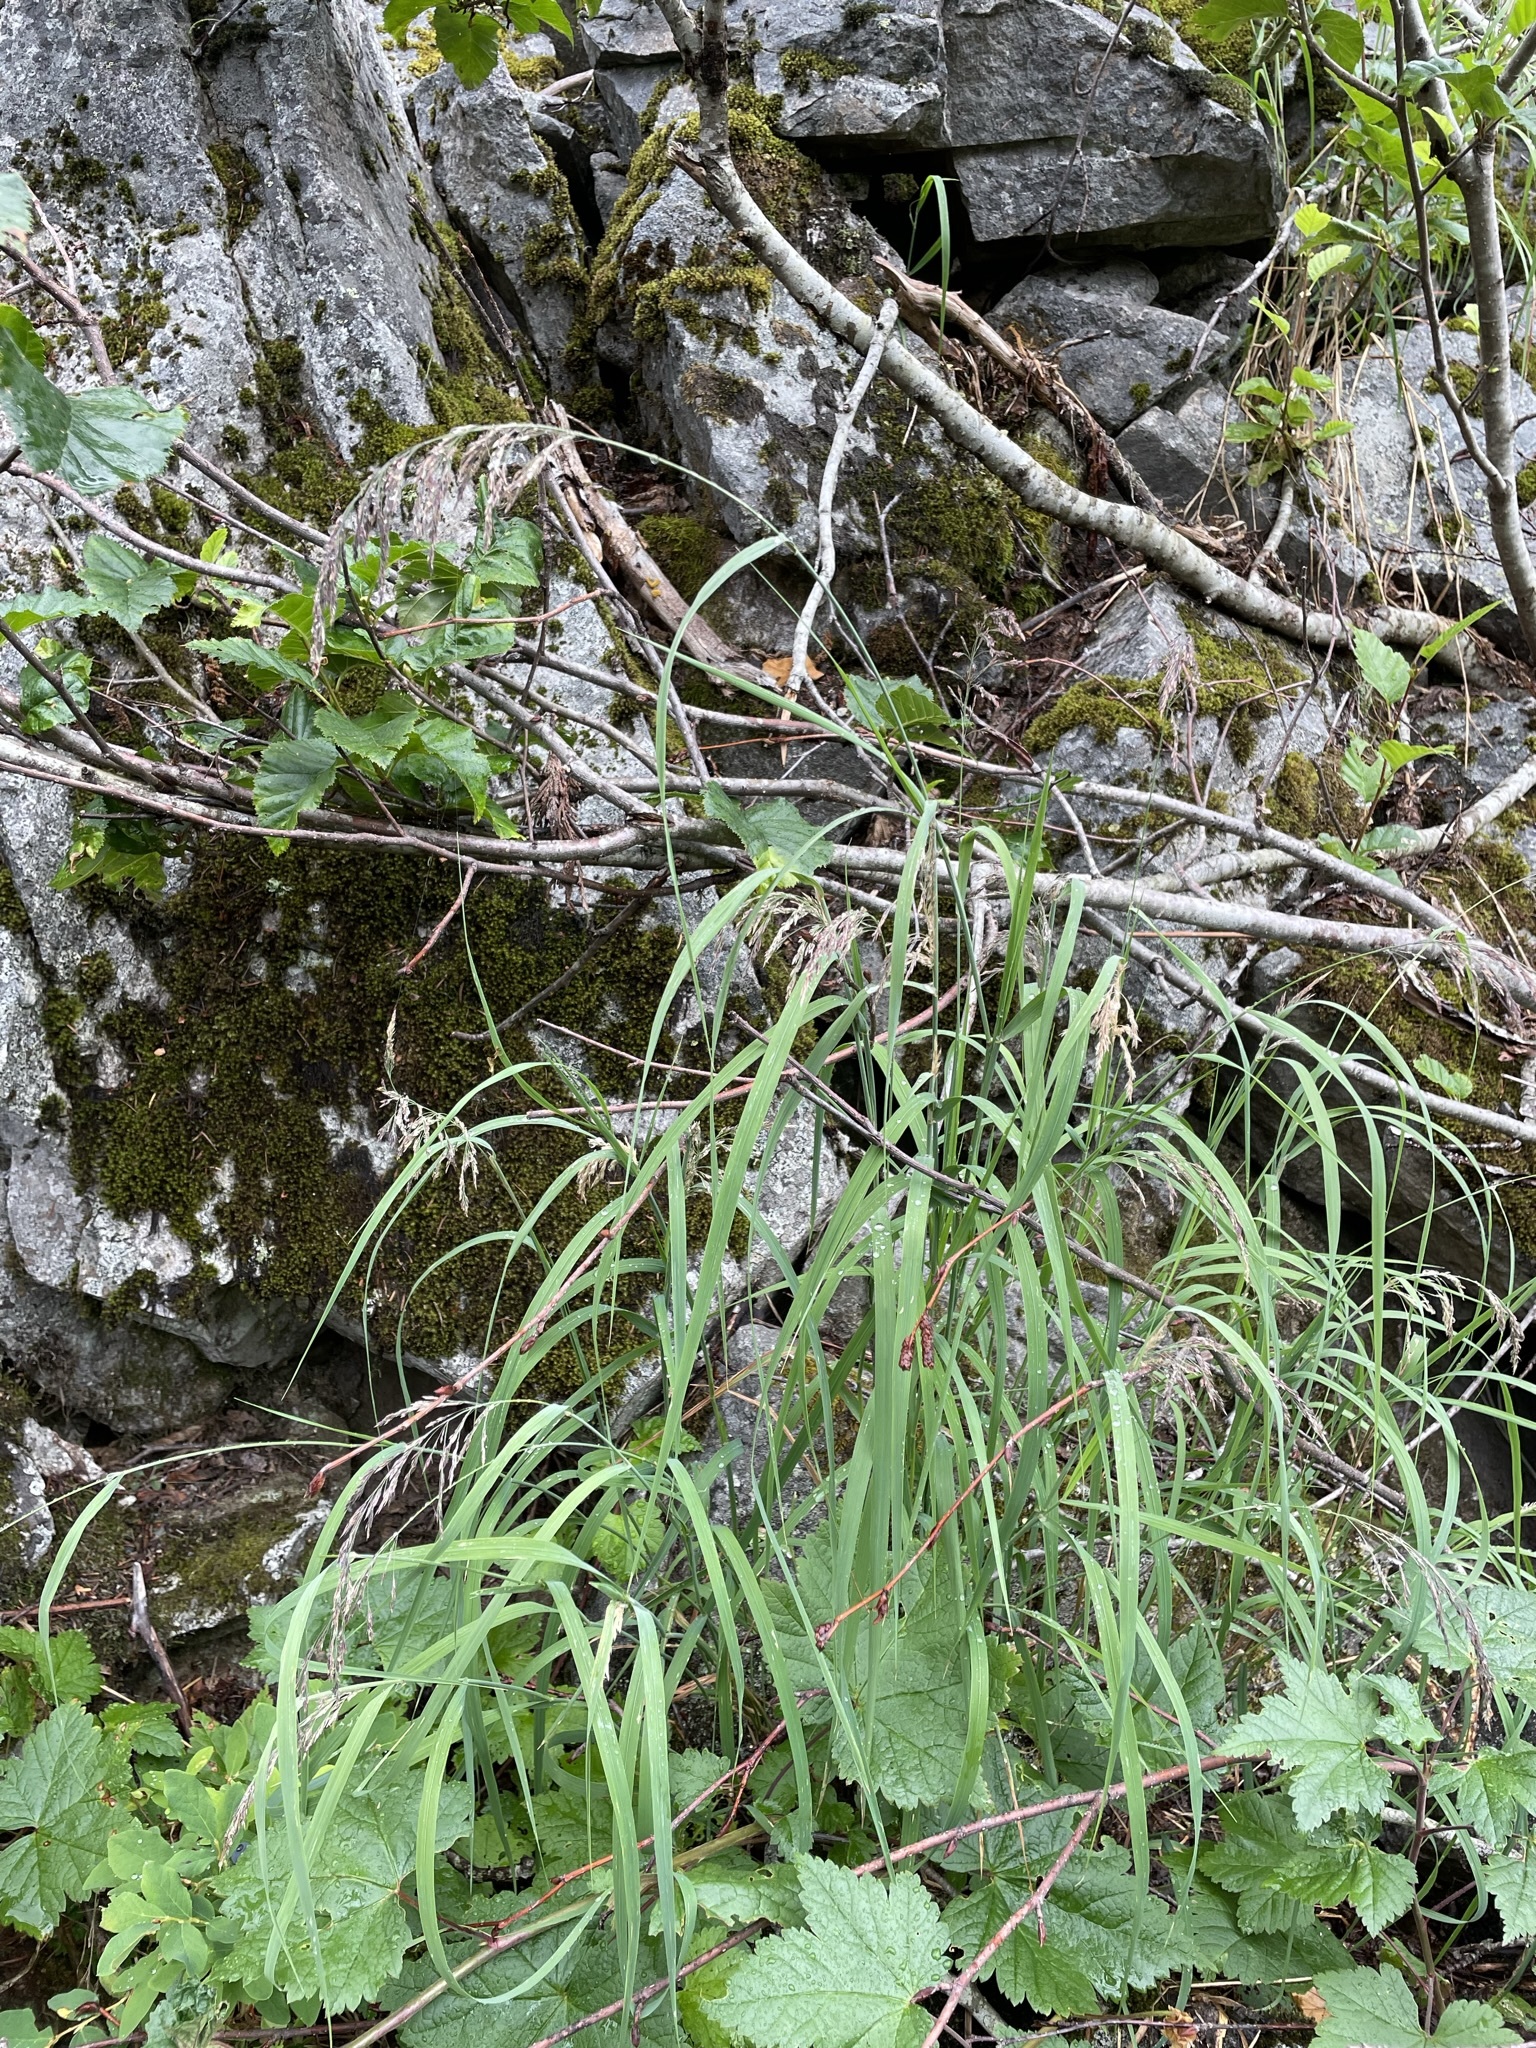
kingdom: Plantae
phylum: Tracheophyta
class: Liliopsida
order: Poales
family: Poaceae
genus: Calamagrostis
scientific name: Calamagrostis canadensis
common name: Canada bluejoint
